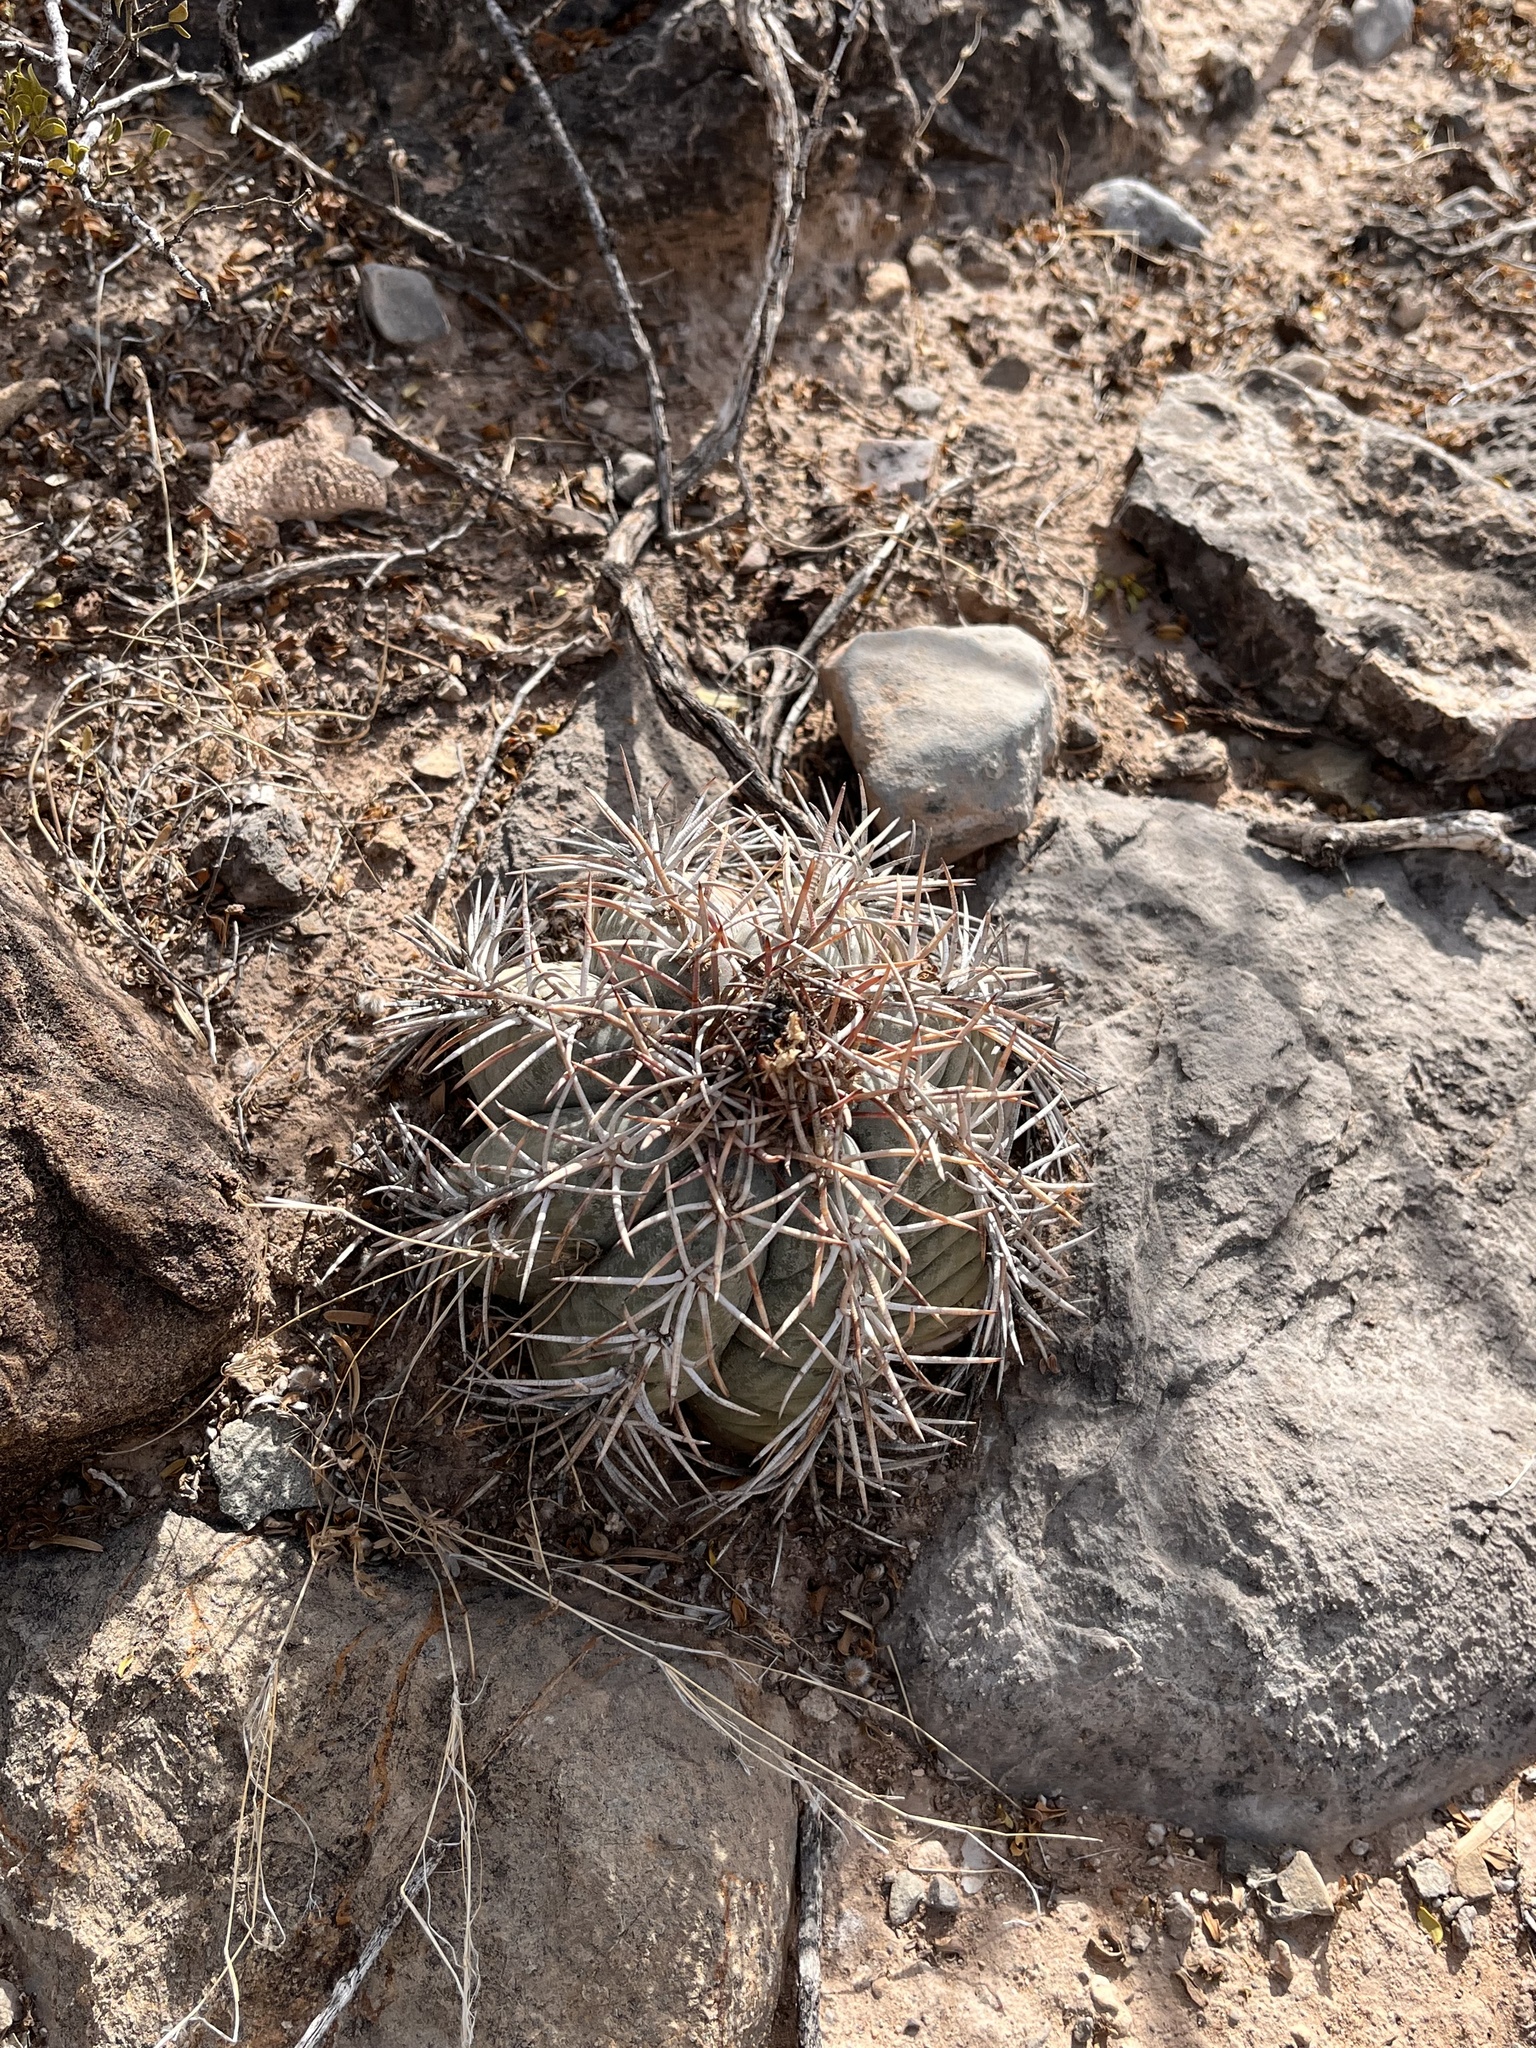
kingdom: Plantae
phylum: Tracheophyta
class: Magnoliopsida
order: Caryophyllales
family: Cactaceae
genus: Echinocactus
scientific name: Echinocactus horizonthalonius
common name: Devilshead
